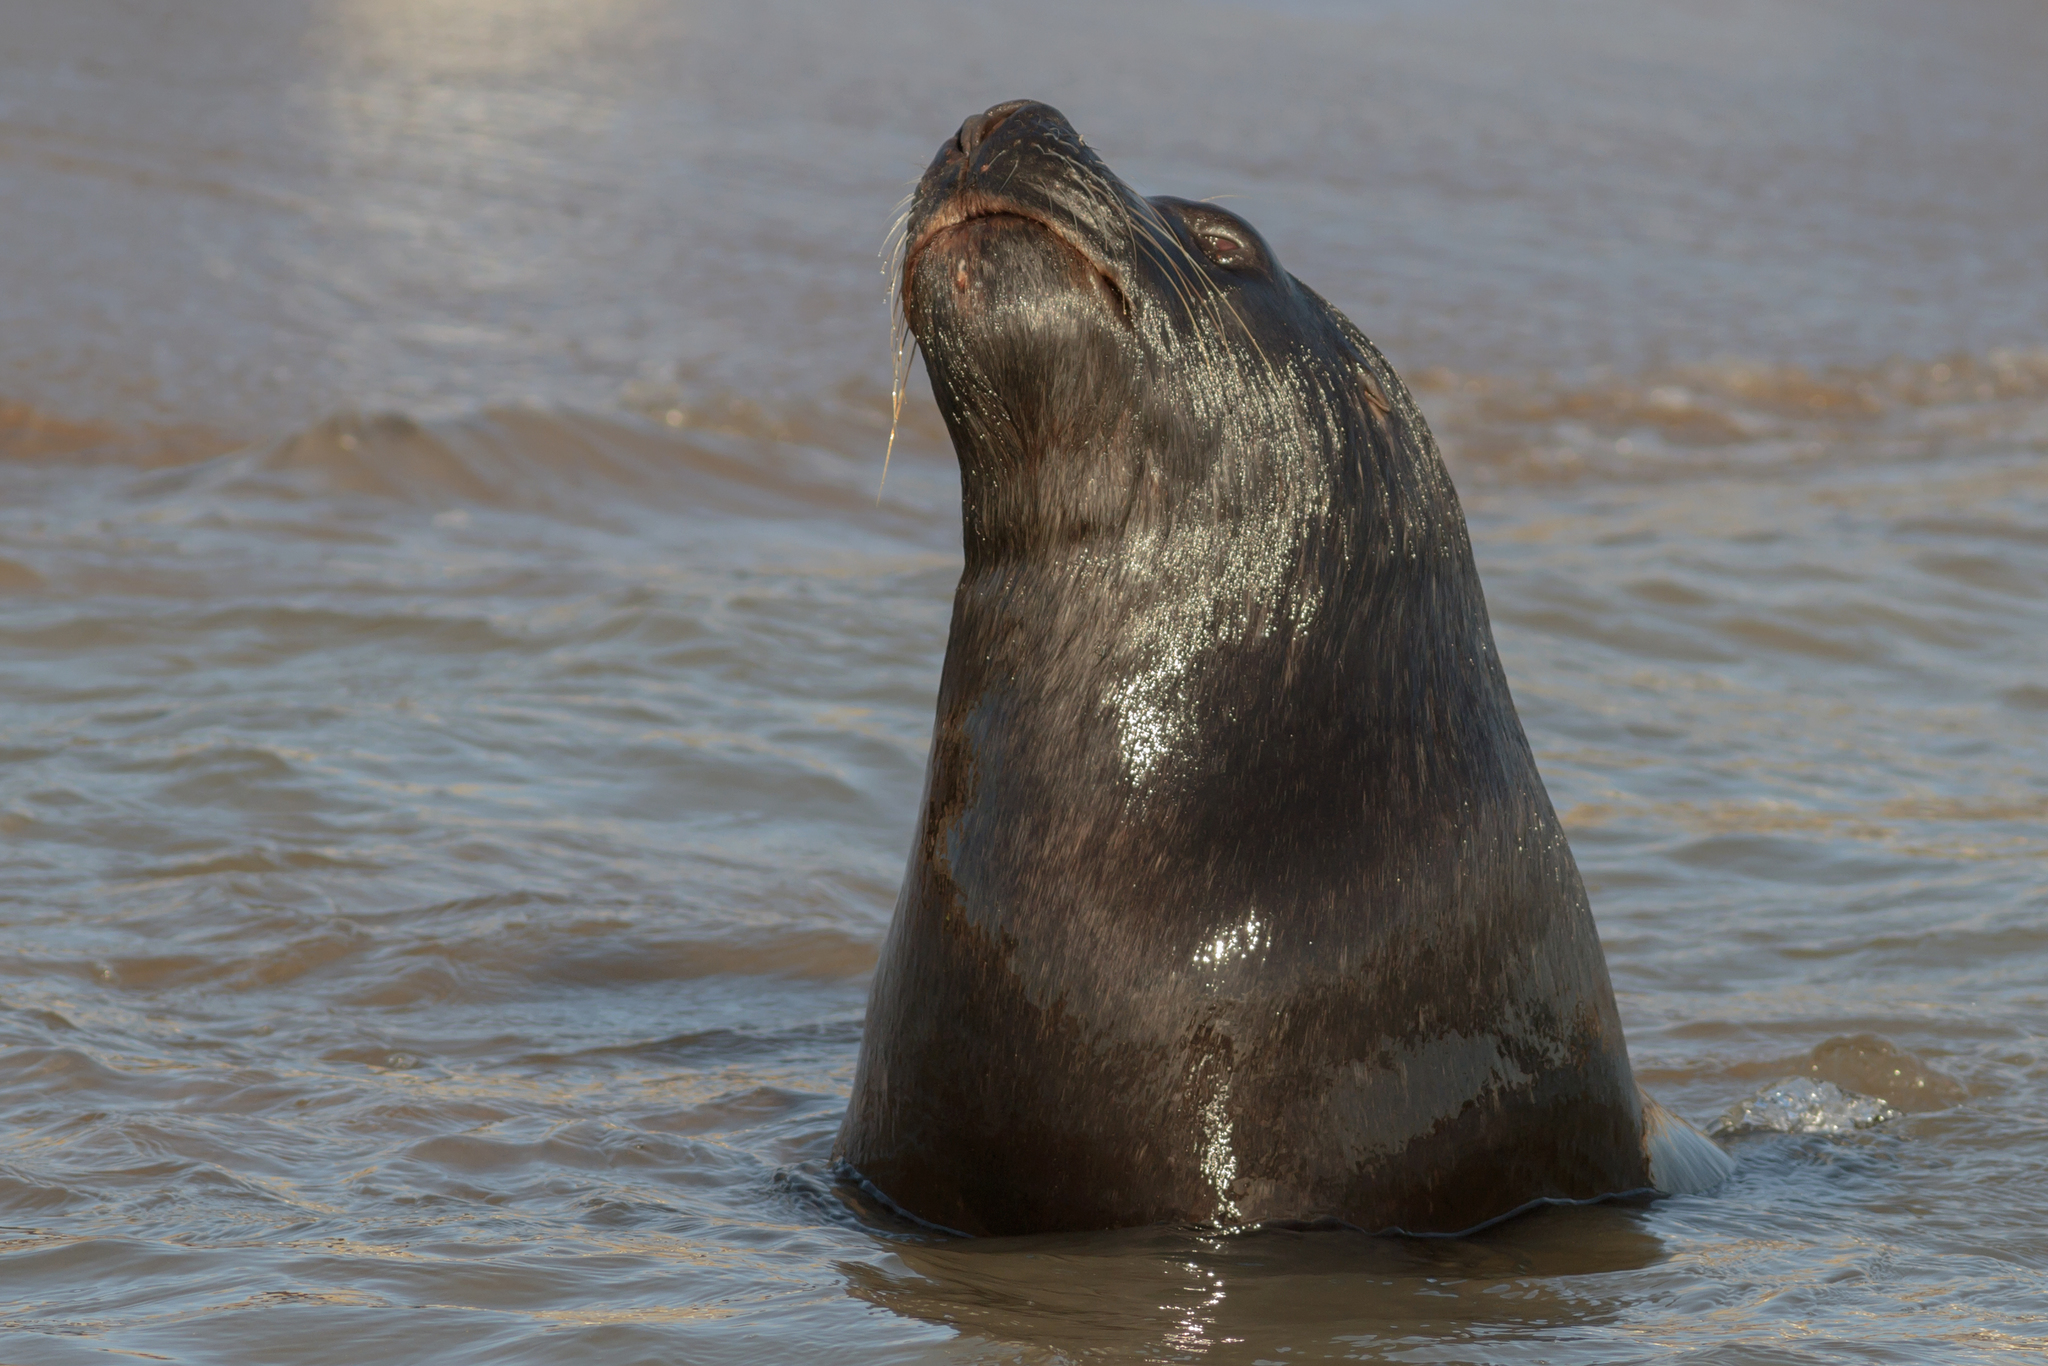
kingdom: Animalia
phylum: Chordata
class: Mammalia
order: Carnivora
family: Otariidae
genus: Otaria
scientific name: Otaria byronia
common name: South american sea lion
